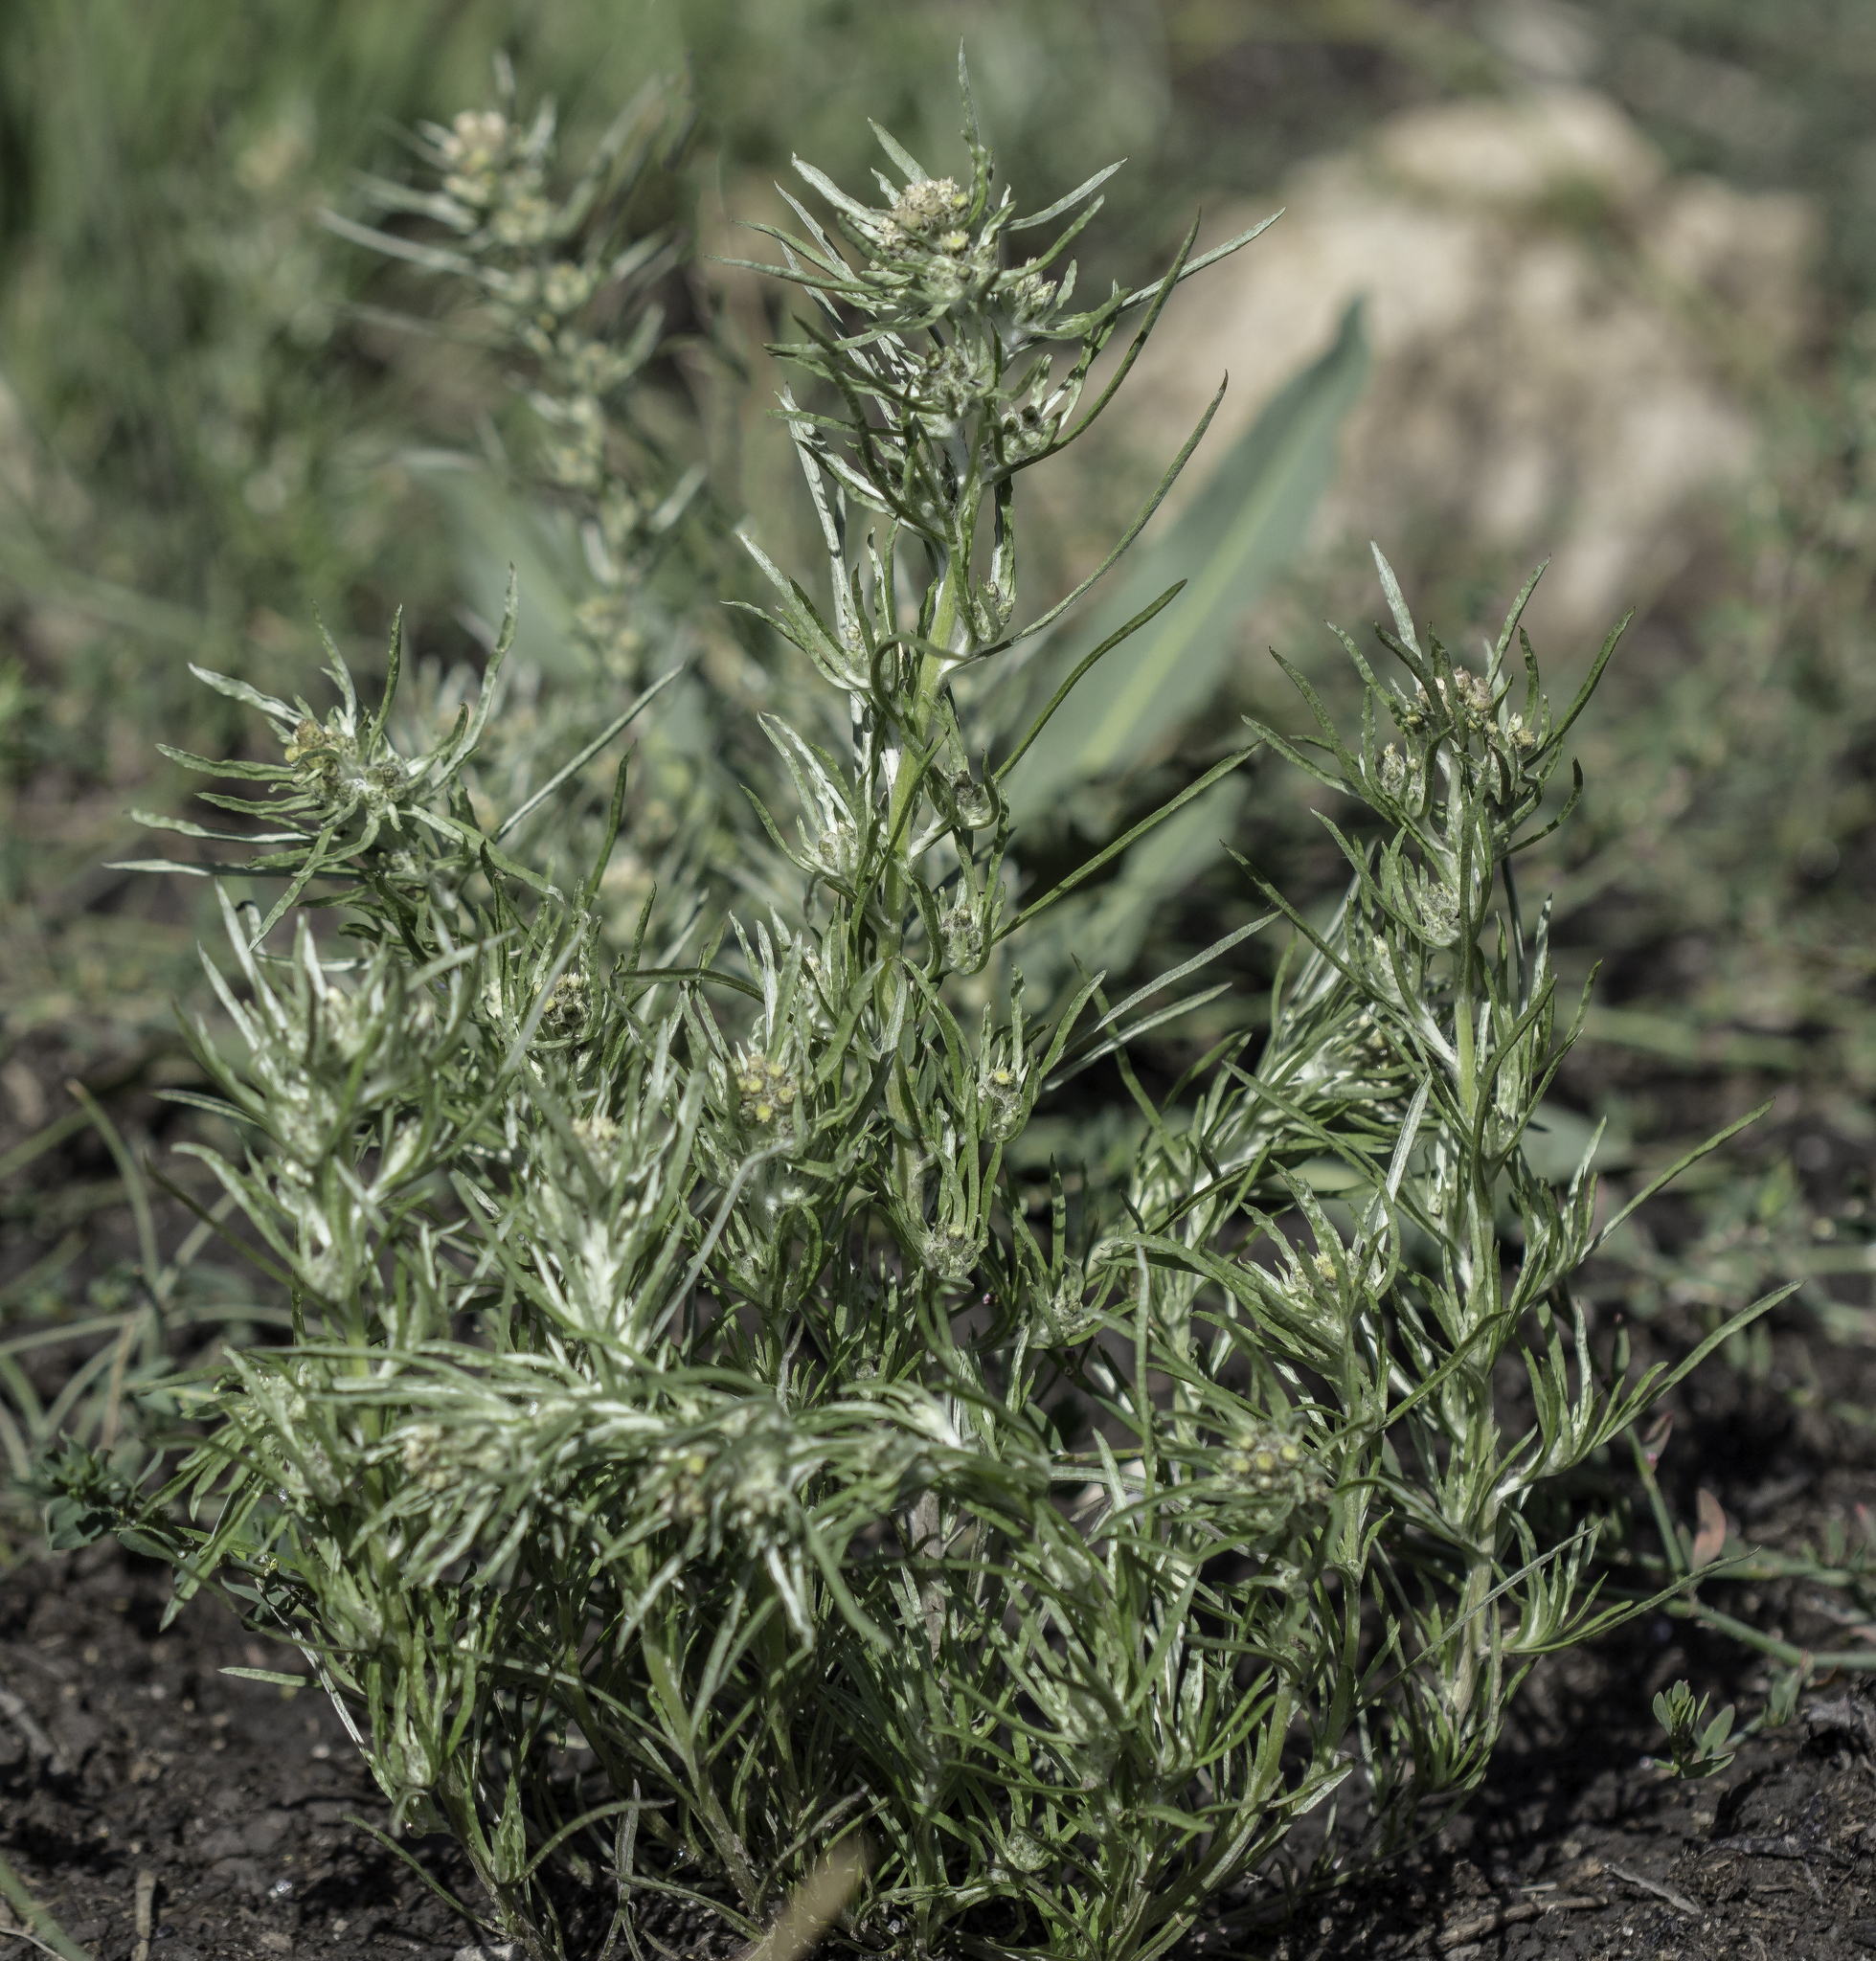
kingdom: Plantae
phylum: Tracheophyta
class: Magnoliopsida
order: Asterales
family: Asteraceae
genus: Gnaphalium
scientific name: Gnaphalium exilifolium
